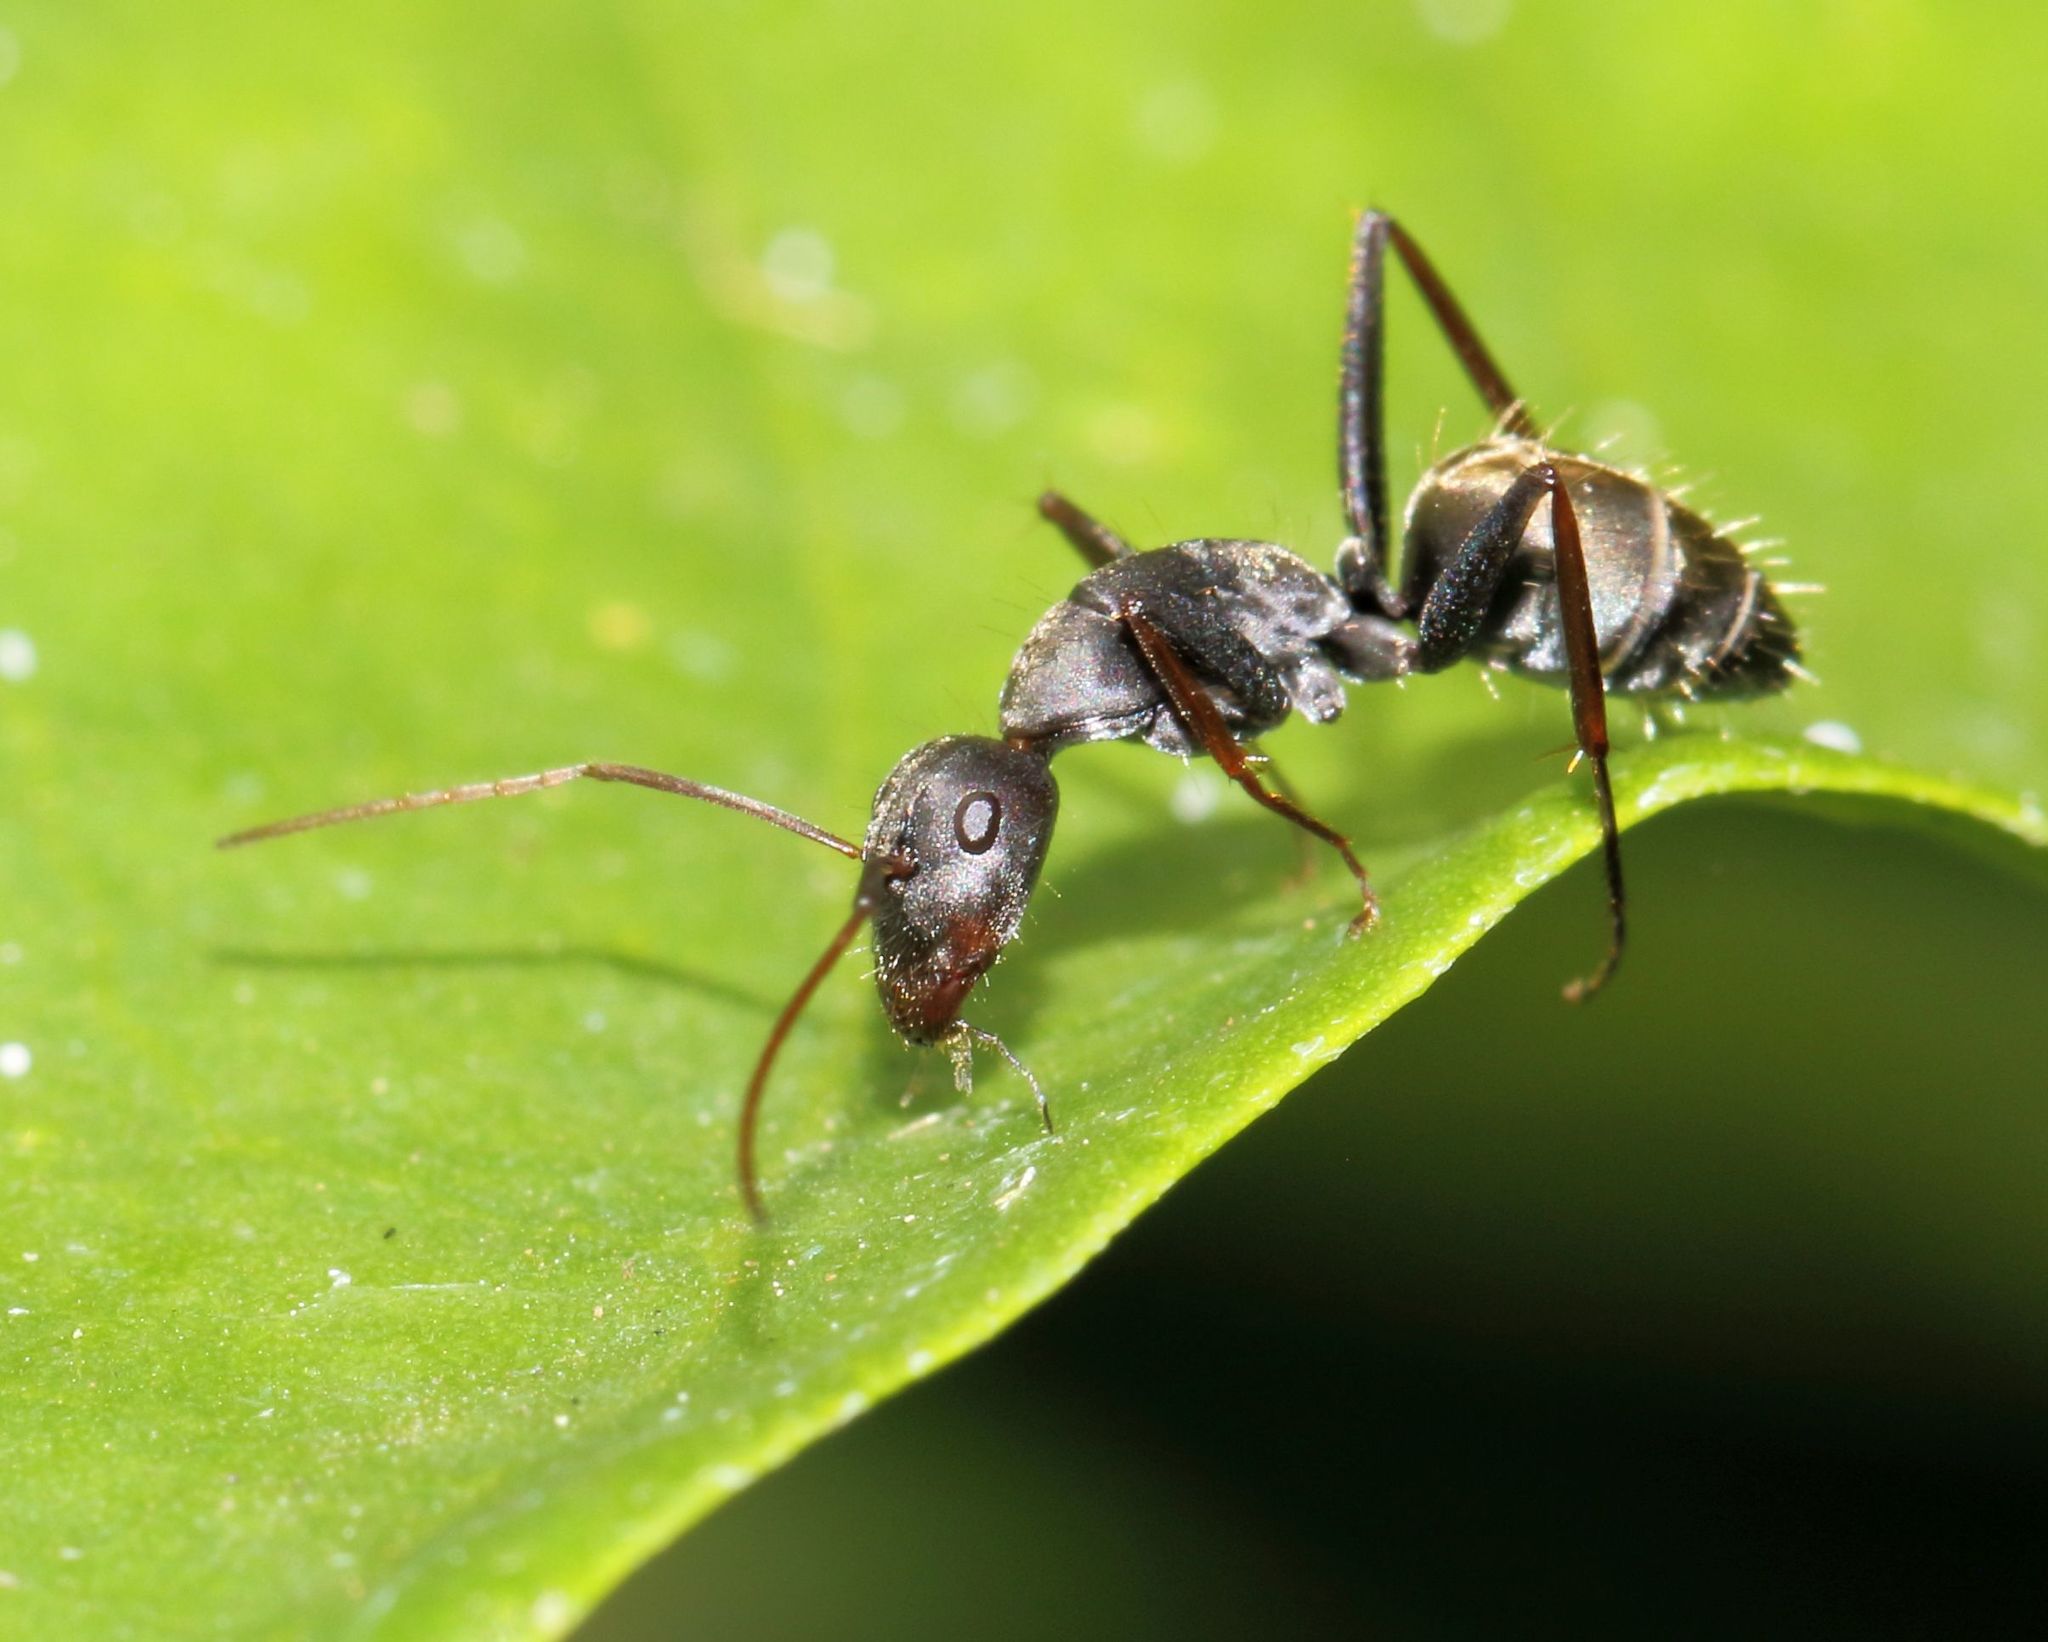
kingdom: Animalia
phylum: Arthropoda
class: Insecta
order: Hymenoptera
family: Formicidae
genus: Camponotus
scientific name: Camponotus cinctellus
